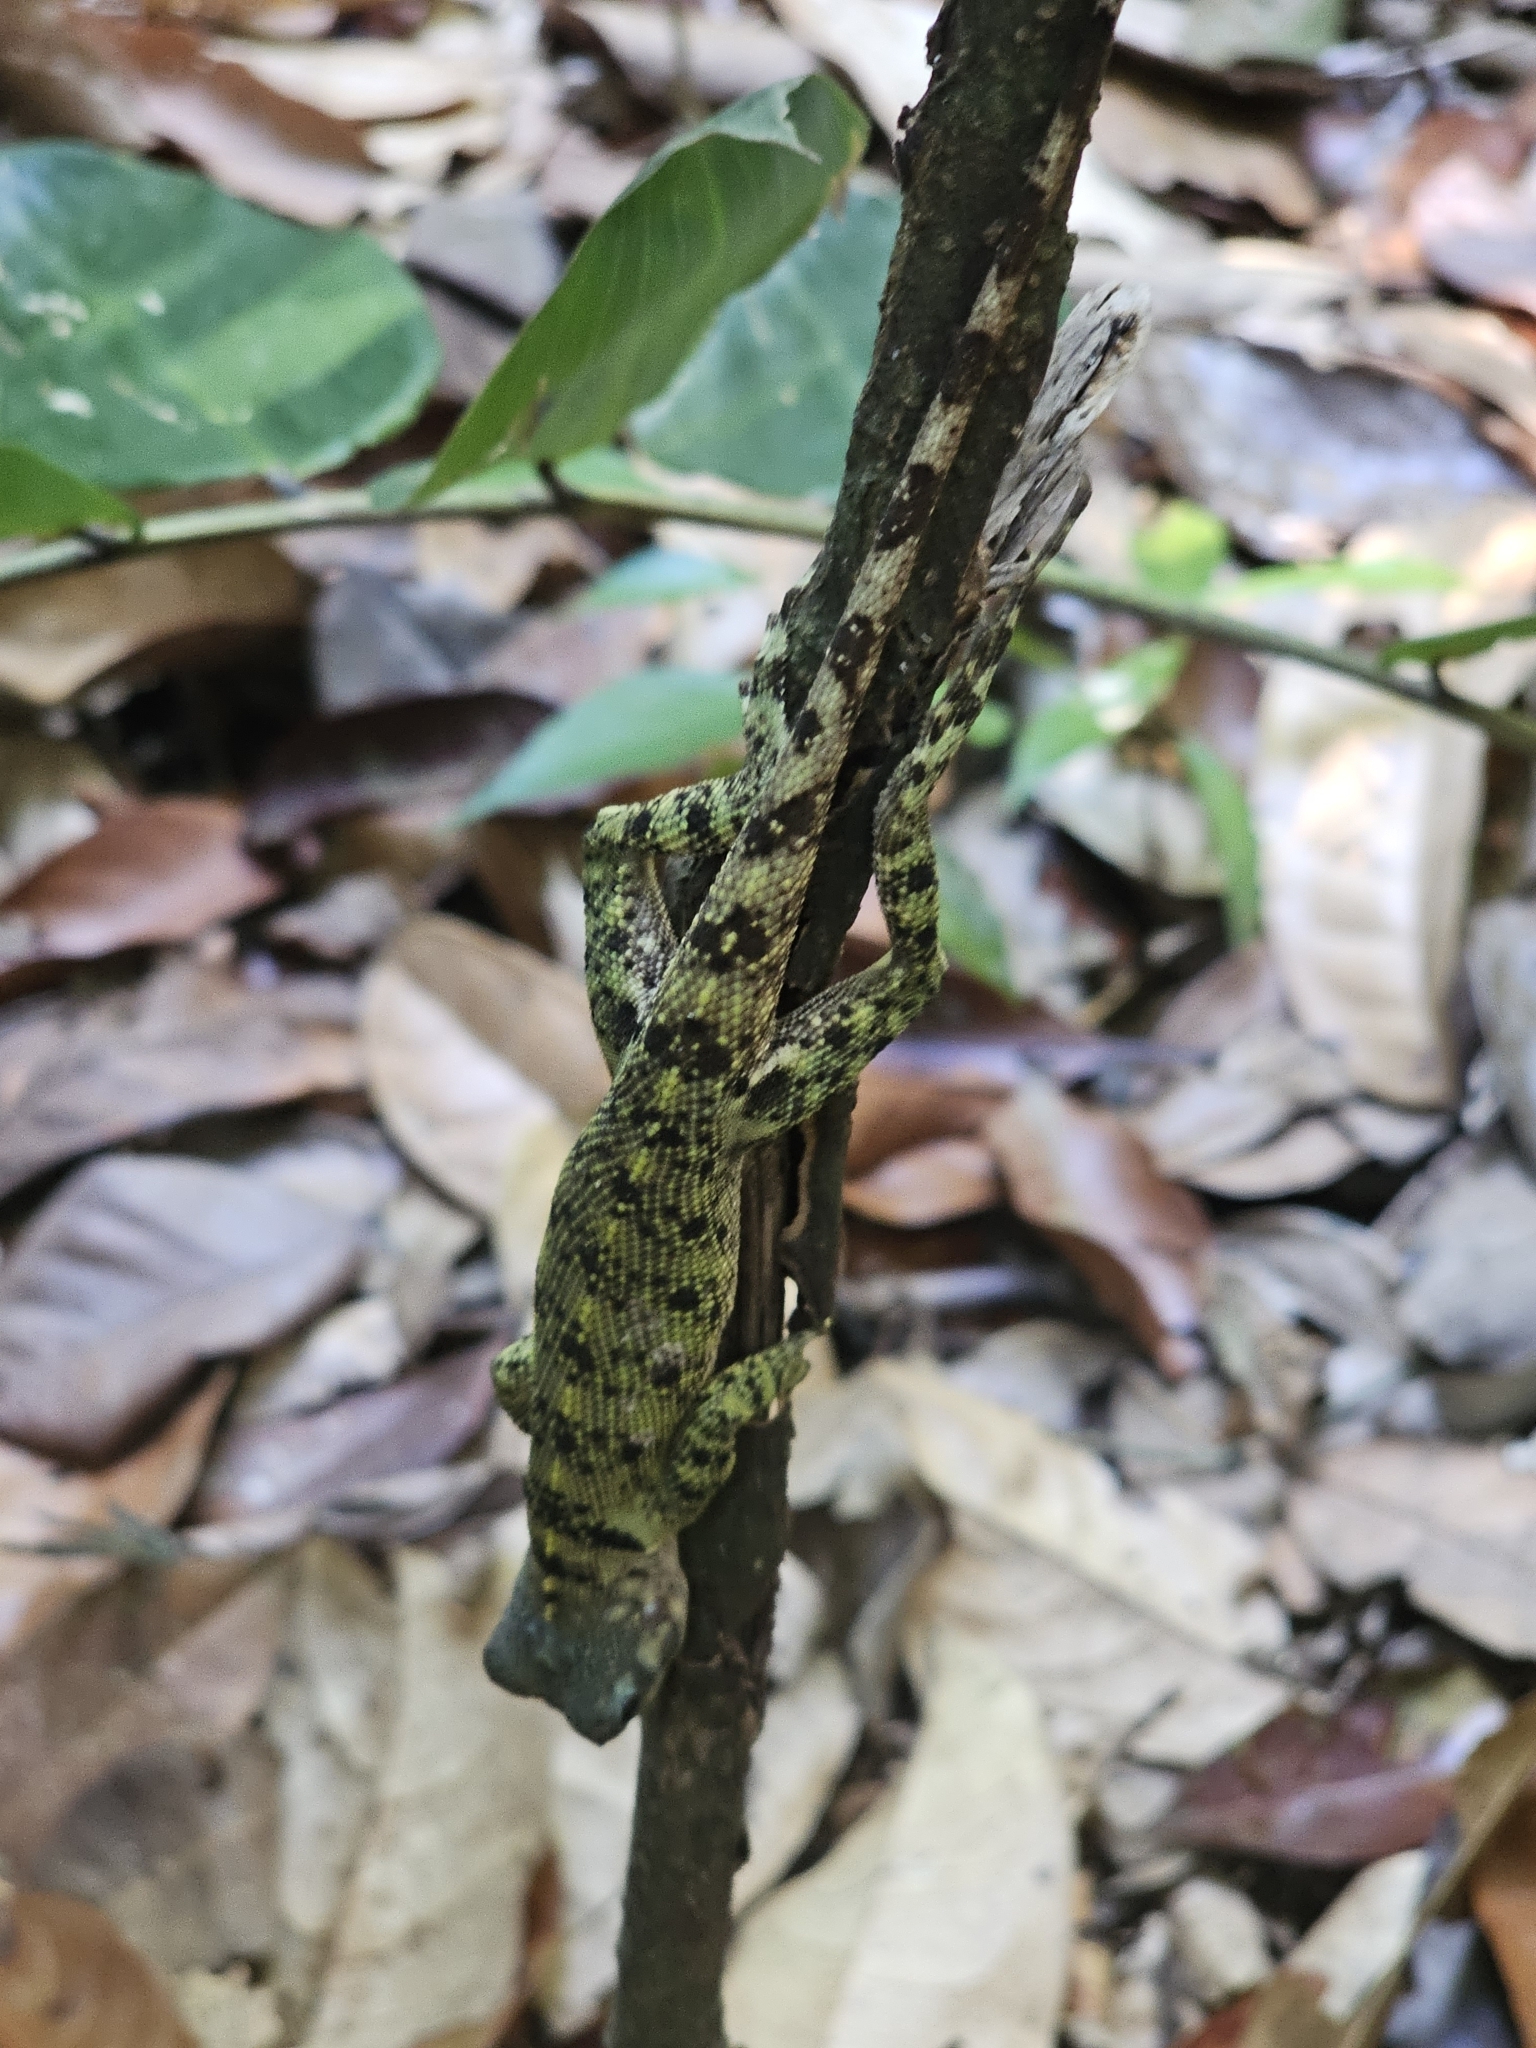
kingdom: Animalia
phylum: Chordata
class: Squamata
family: Tropiduridae
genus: Plica
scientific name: Plica umbra
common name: Harlequin racerunner
